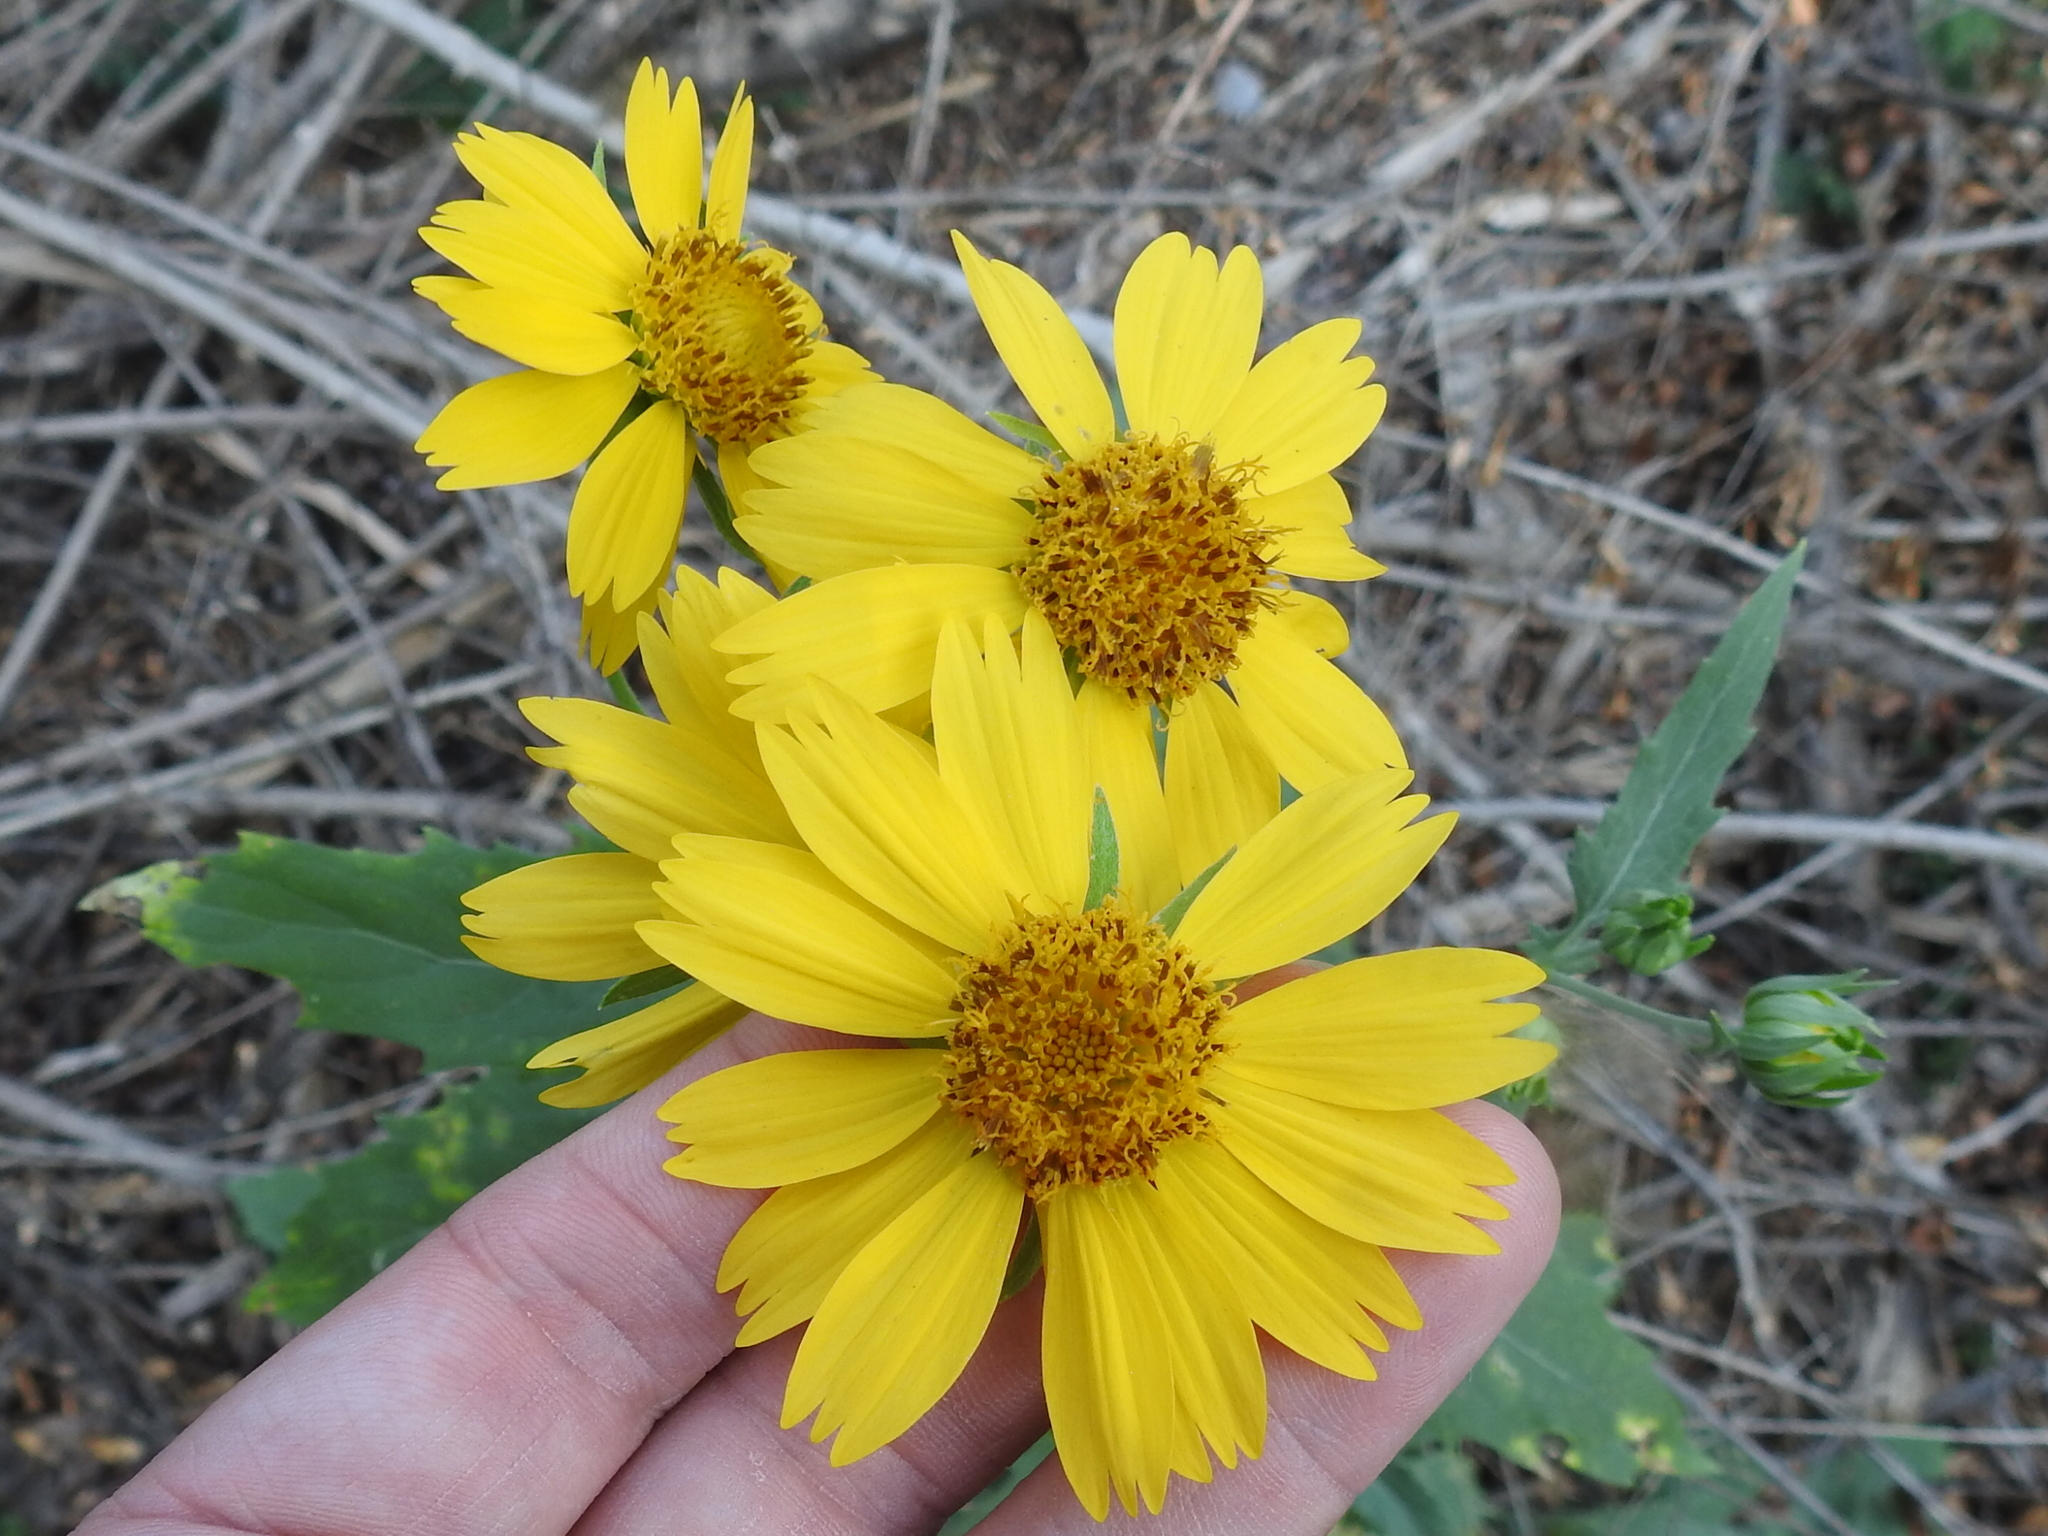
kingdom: Plantae
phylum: Tracheophyta
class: Magnoliopsida
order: Asterales
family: Asteraceae
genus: Verbesina
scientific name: Verbesina encelioides
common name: Golden crownbeard
